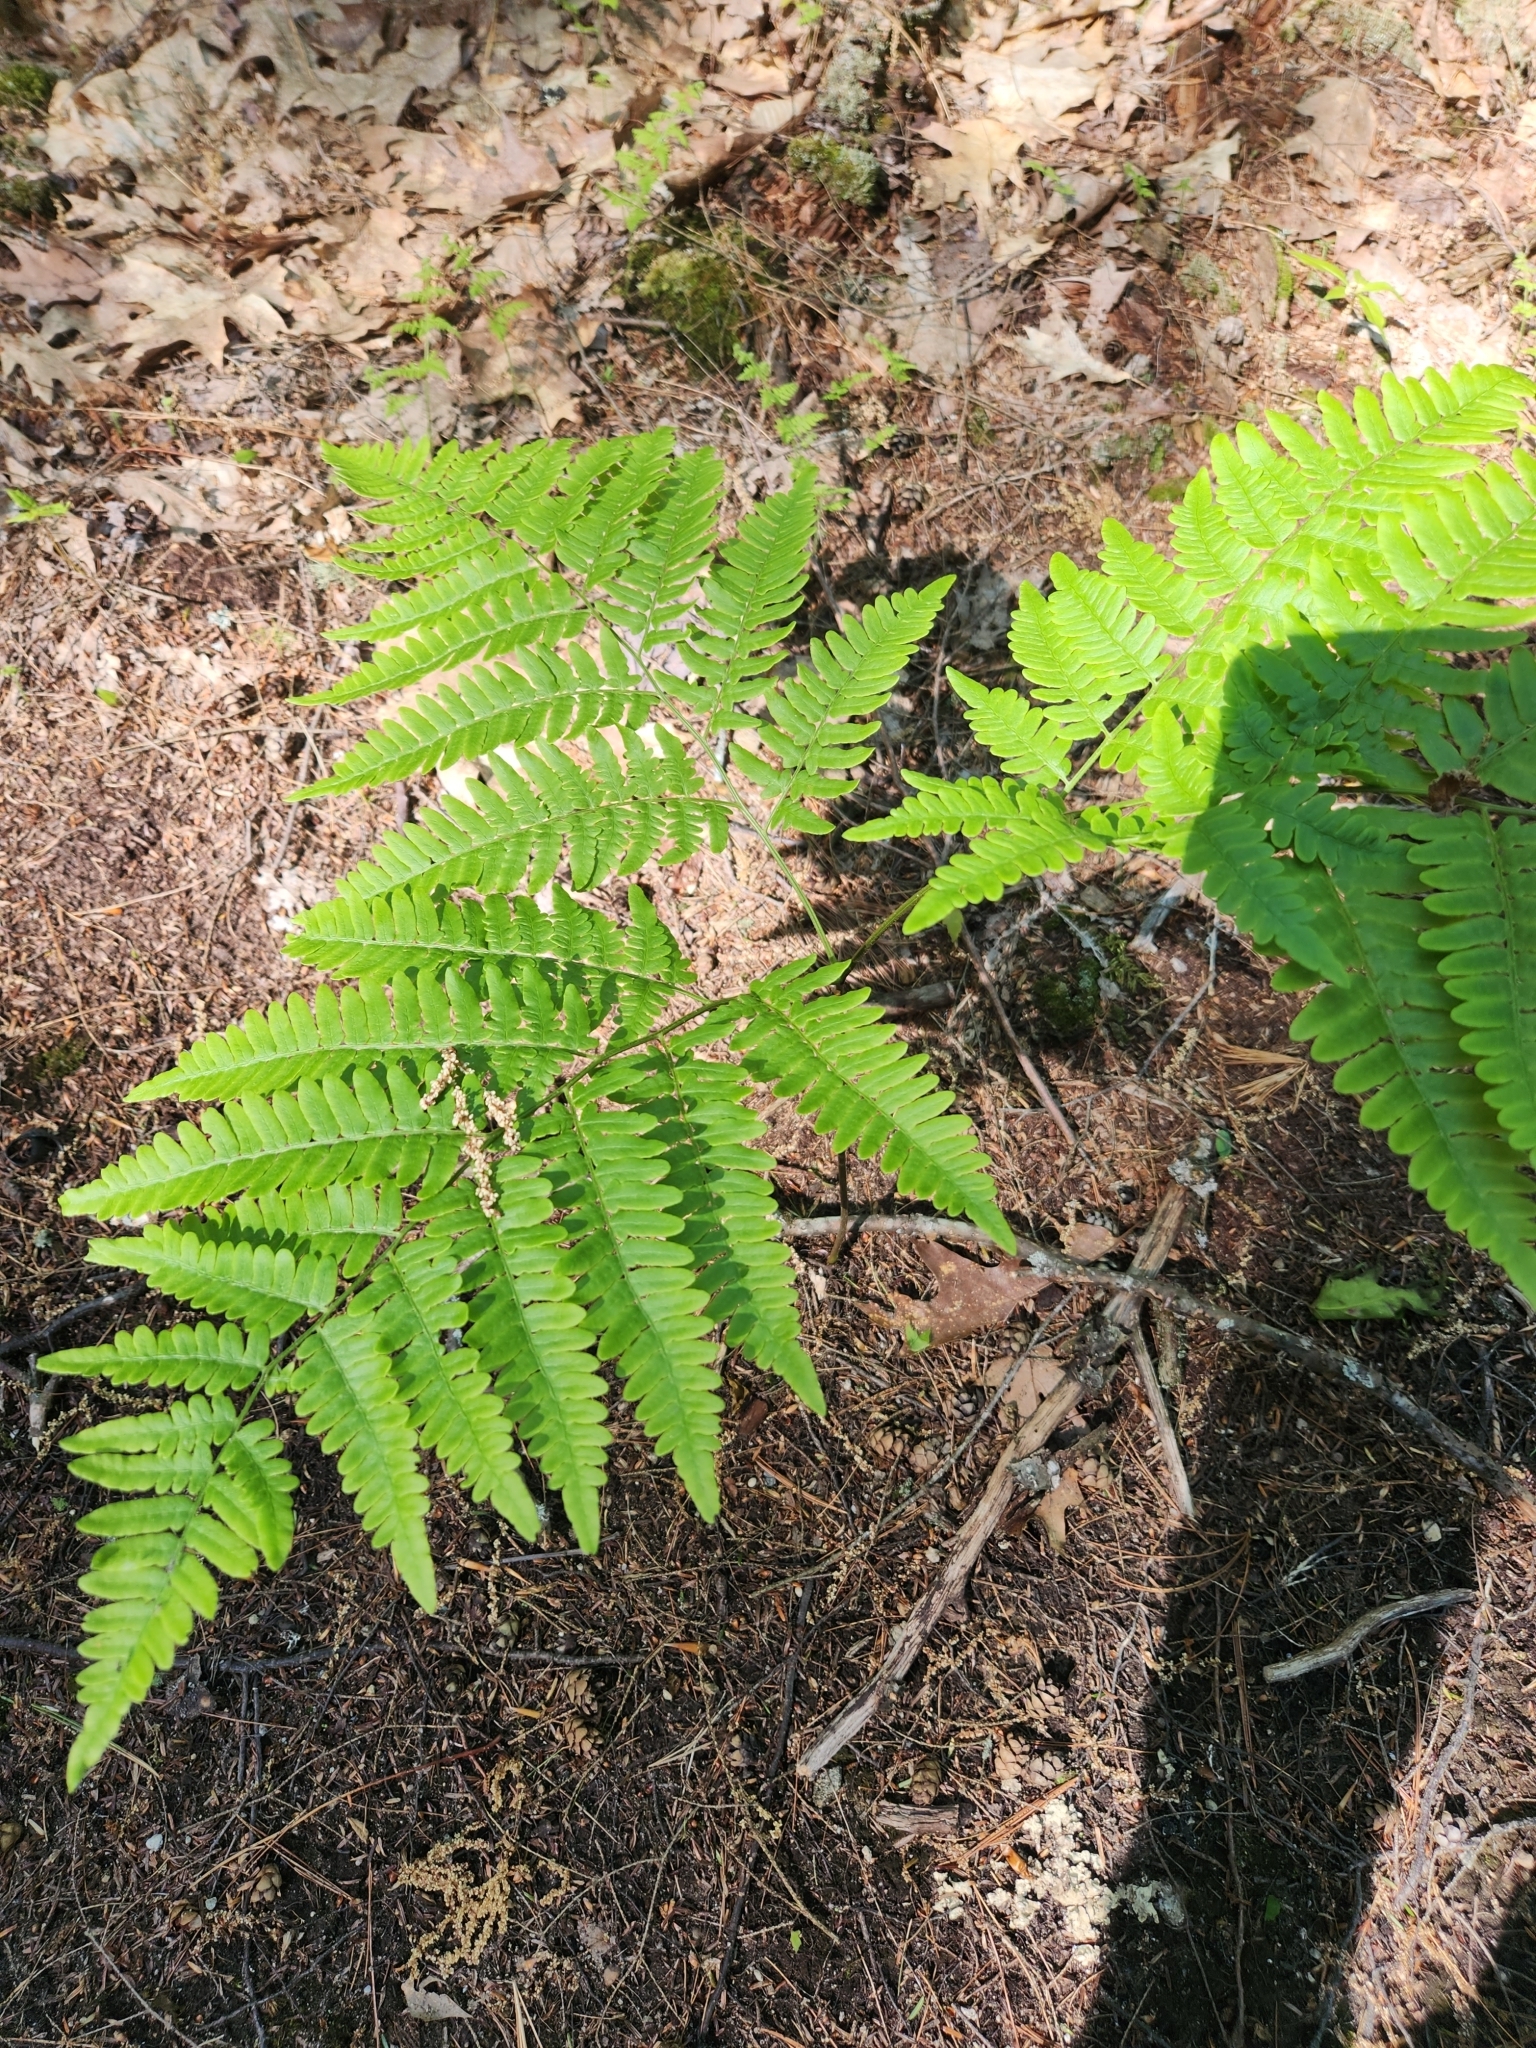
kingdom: Plantae
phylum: Tracheophyta
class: Polypodiopsida
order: Polypodiales
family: Dennstaedtiaceae
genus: Pteridium
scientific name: Pteridium aquilinum
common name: Bracken
